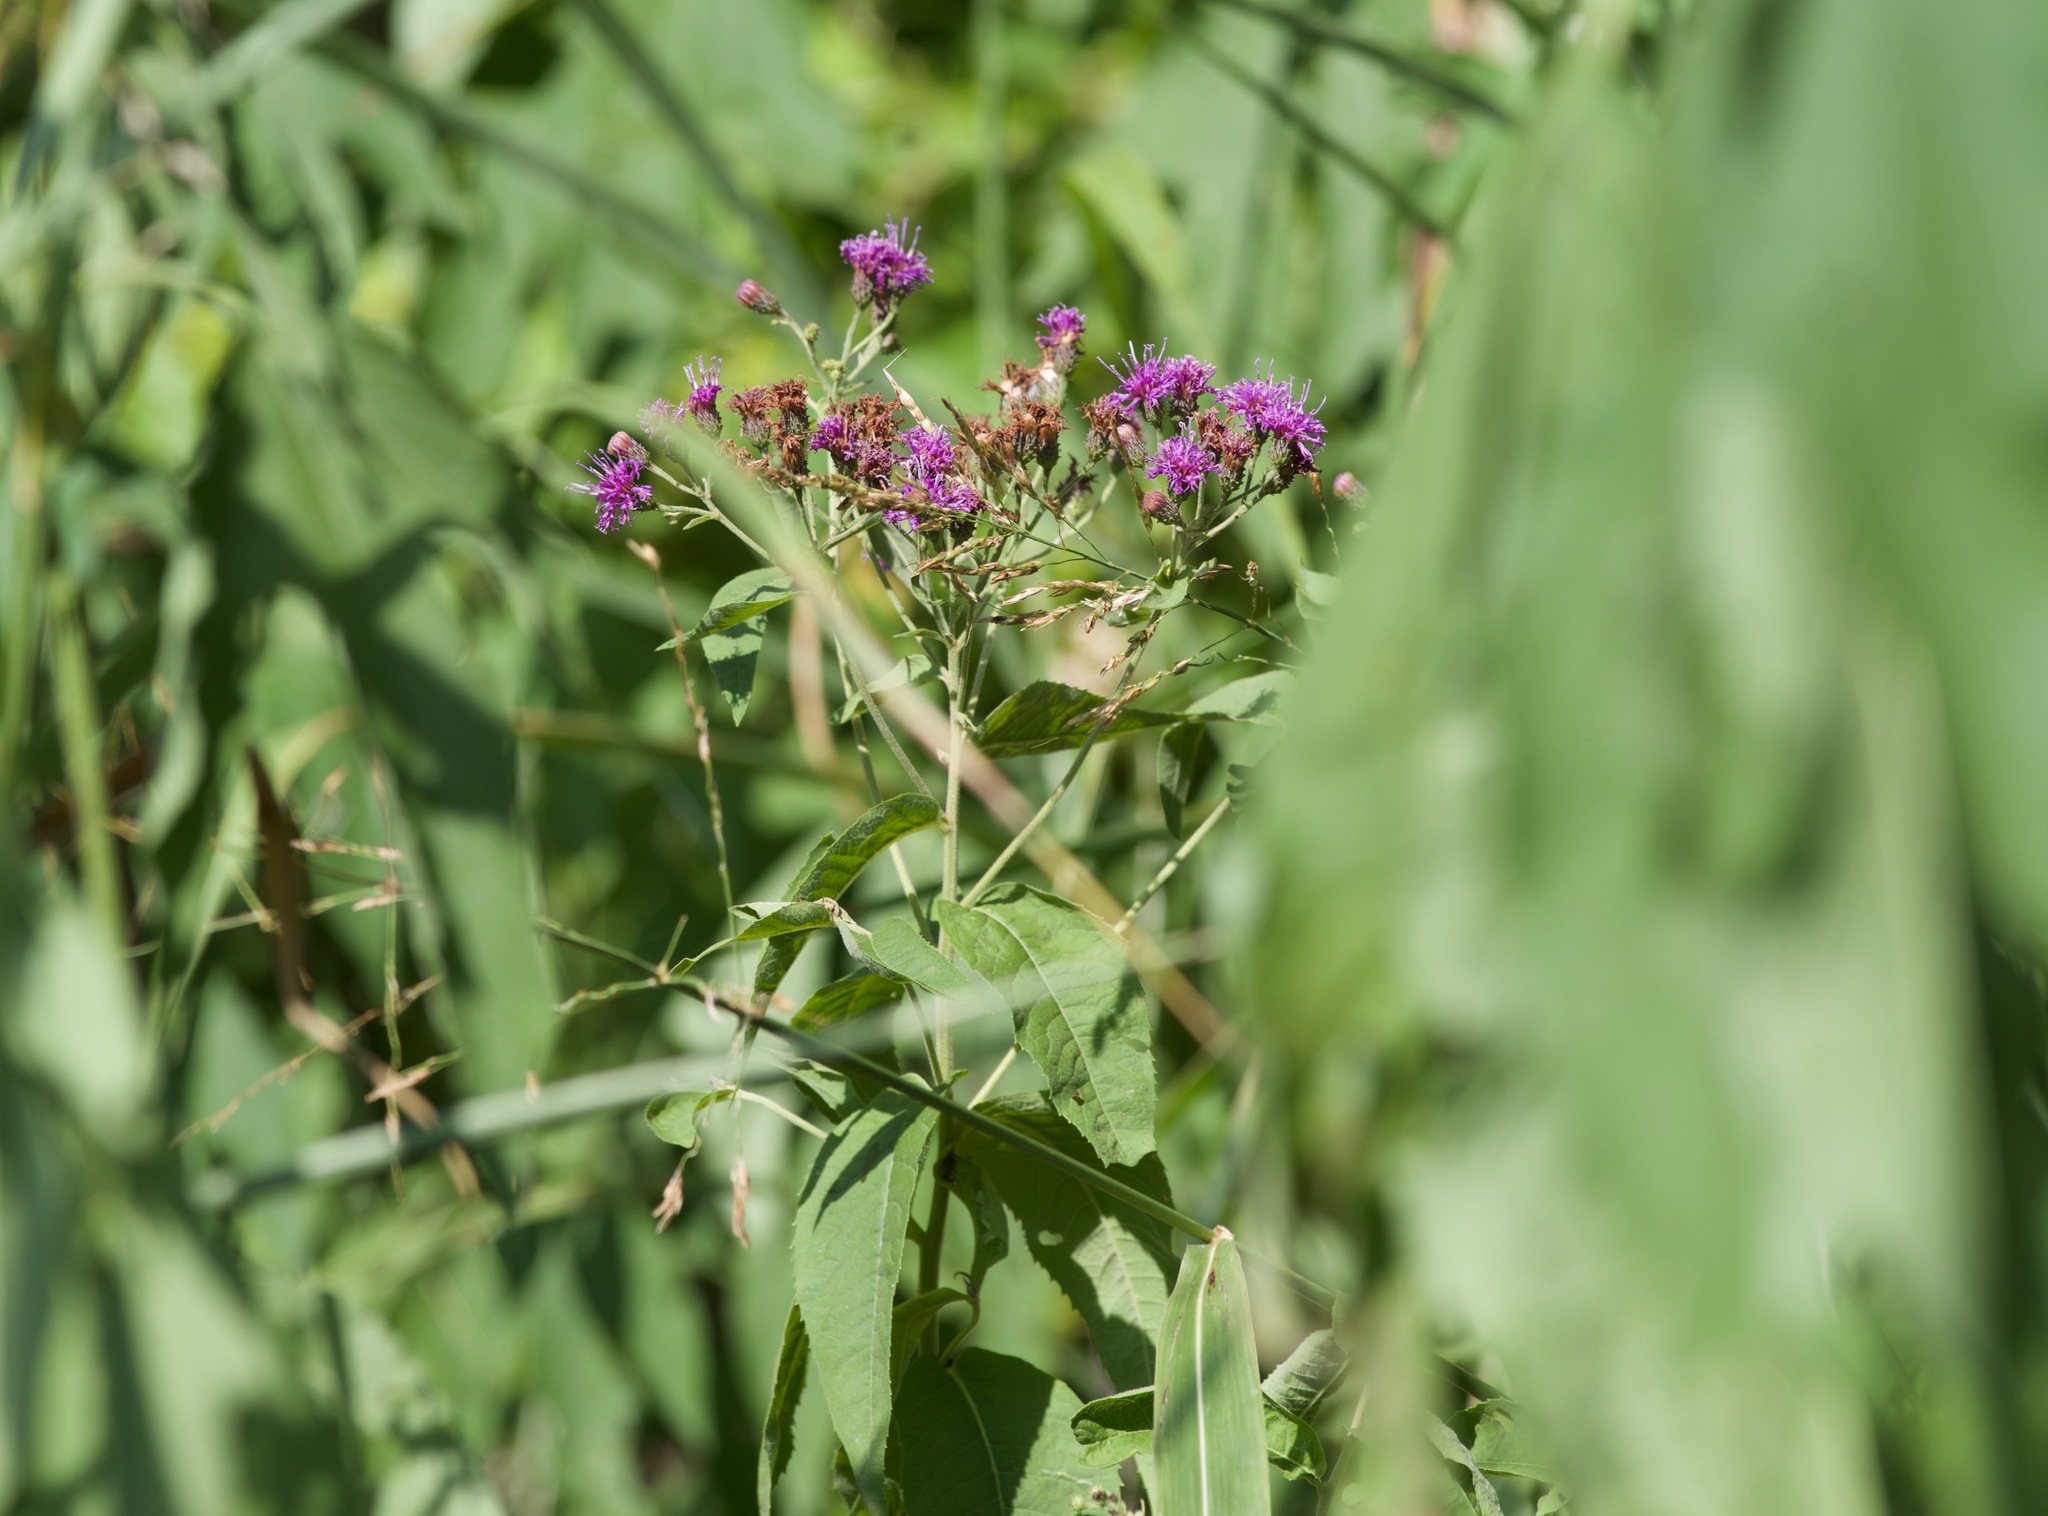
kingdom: Plantae
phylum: Tracheophyta
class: Magnoliopsida
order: Asterales
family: Asteraceae
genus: Vernonia
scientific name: Vernonia baldwinii
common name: Western ironweed
